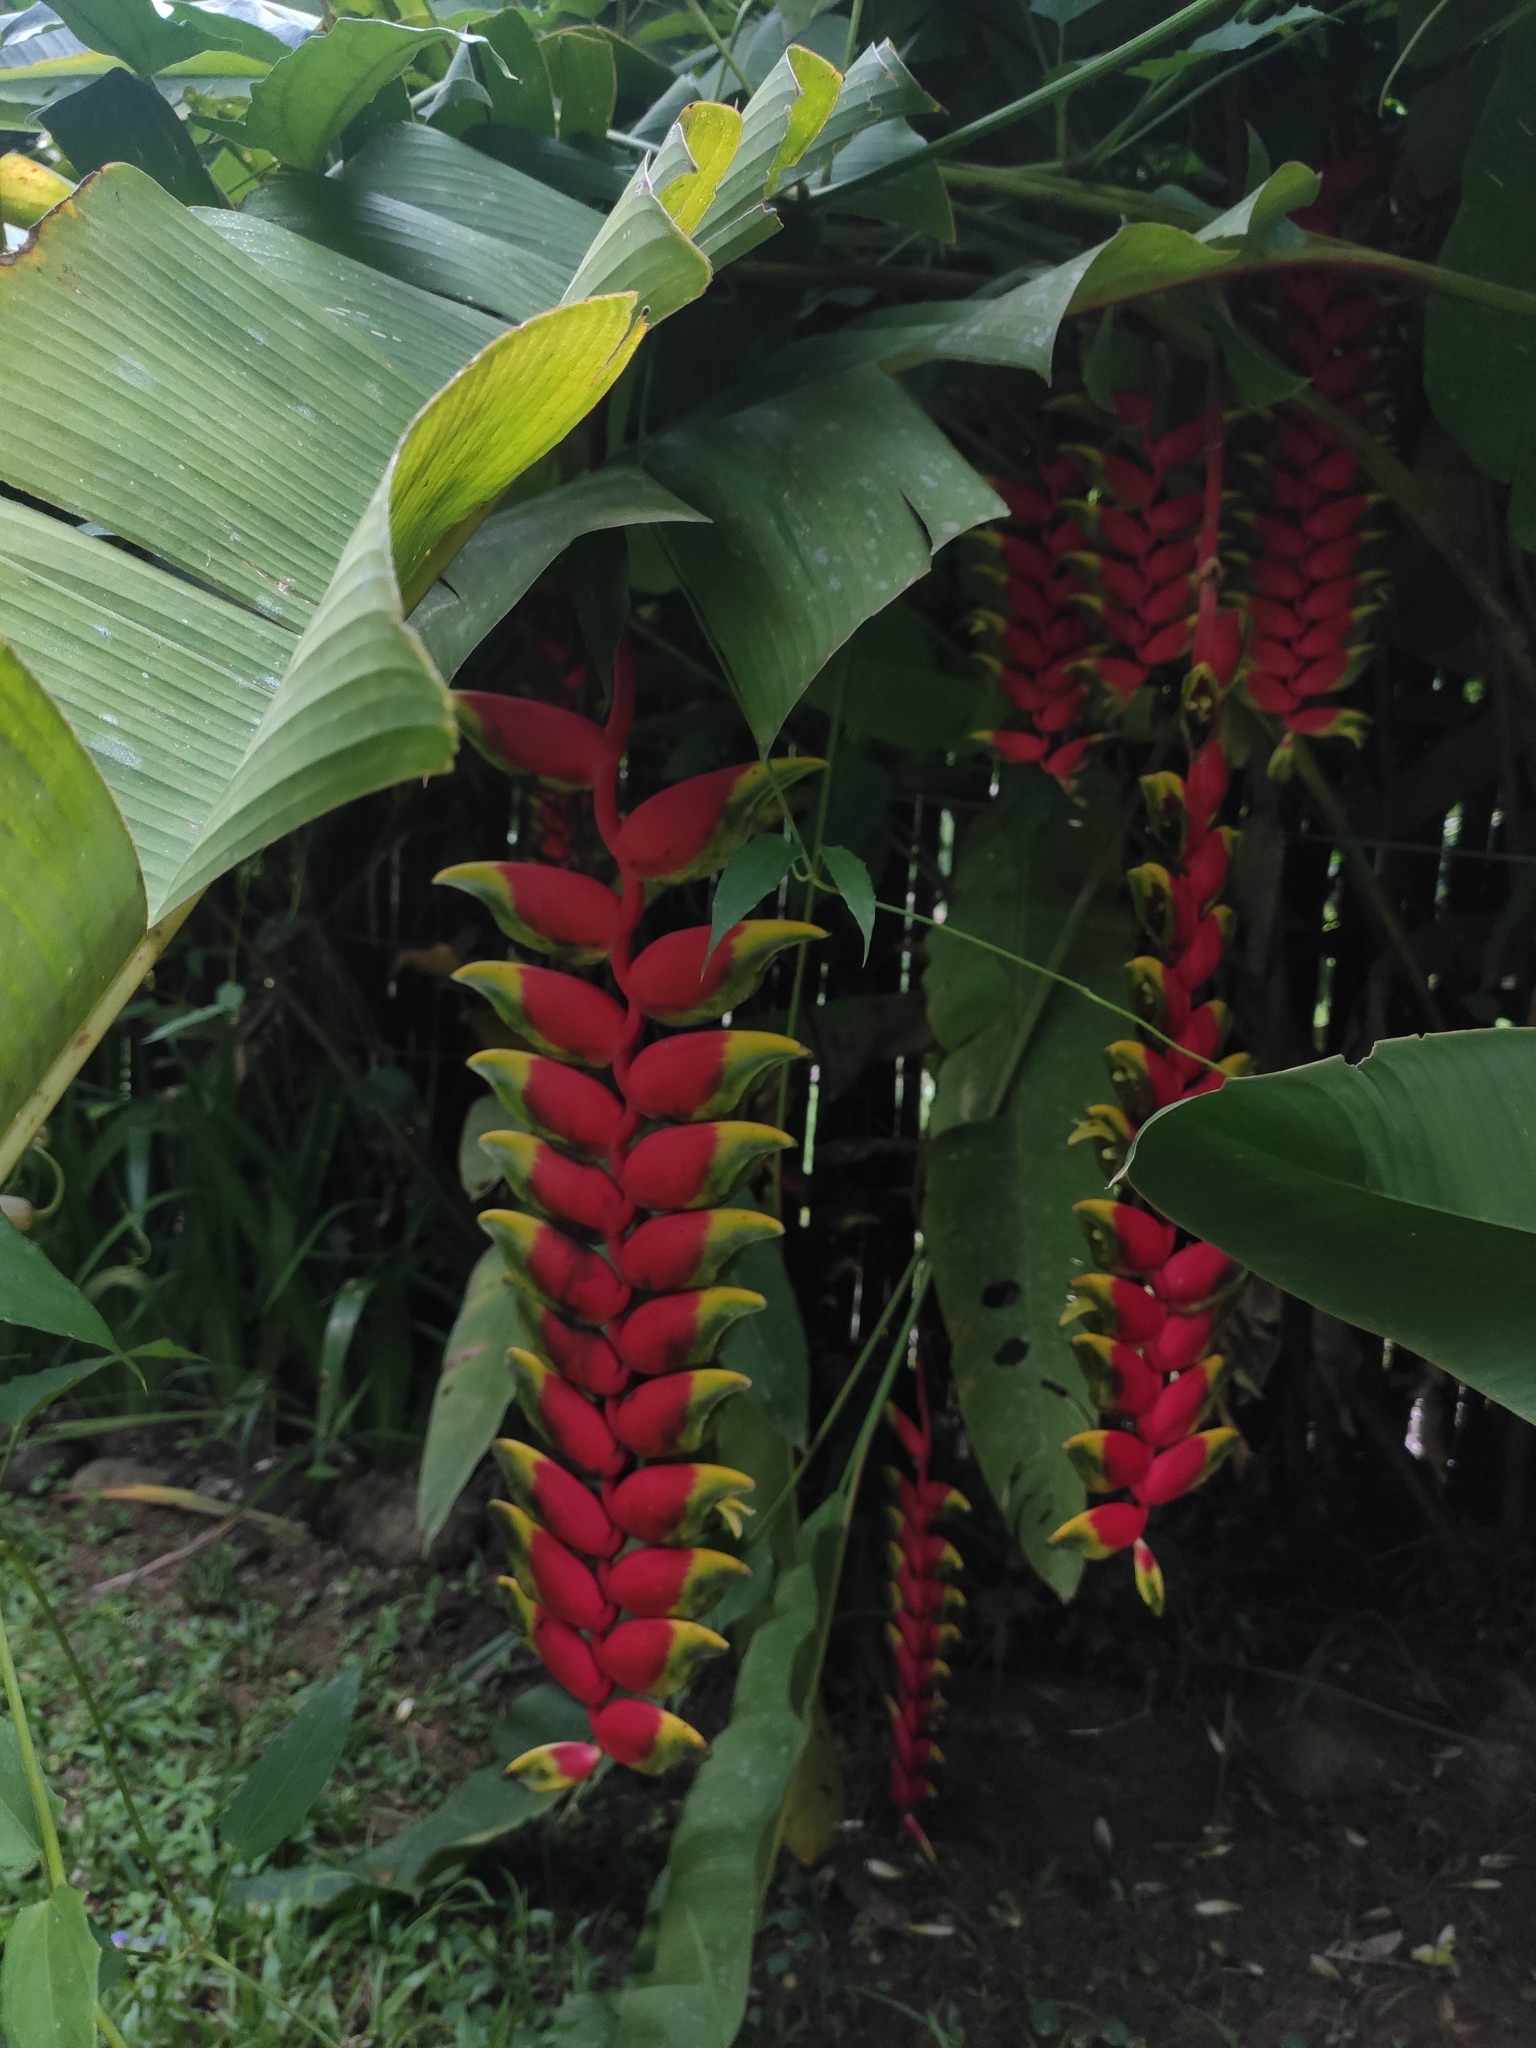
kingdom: Plantae
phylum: Tracheophyta
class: Liliopsida
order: Zingiberales
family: Heliconiaceae
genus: Heliconia
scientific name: Heliconia rostrata
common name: False bird of paradise
